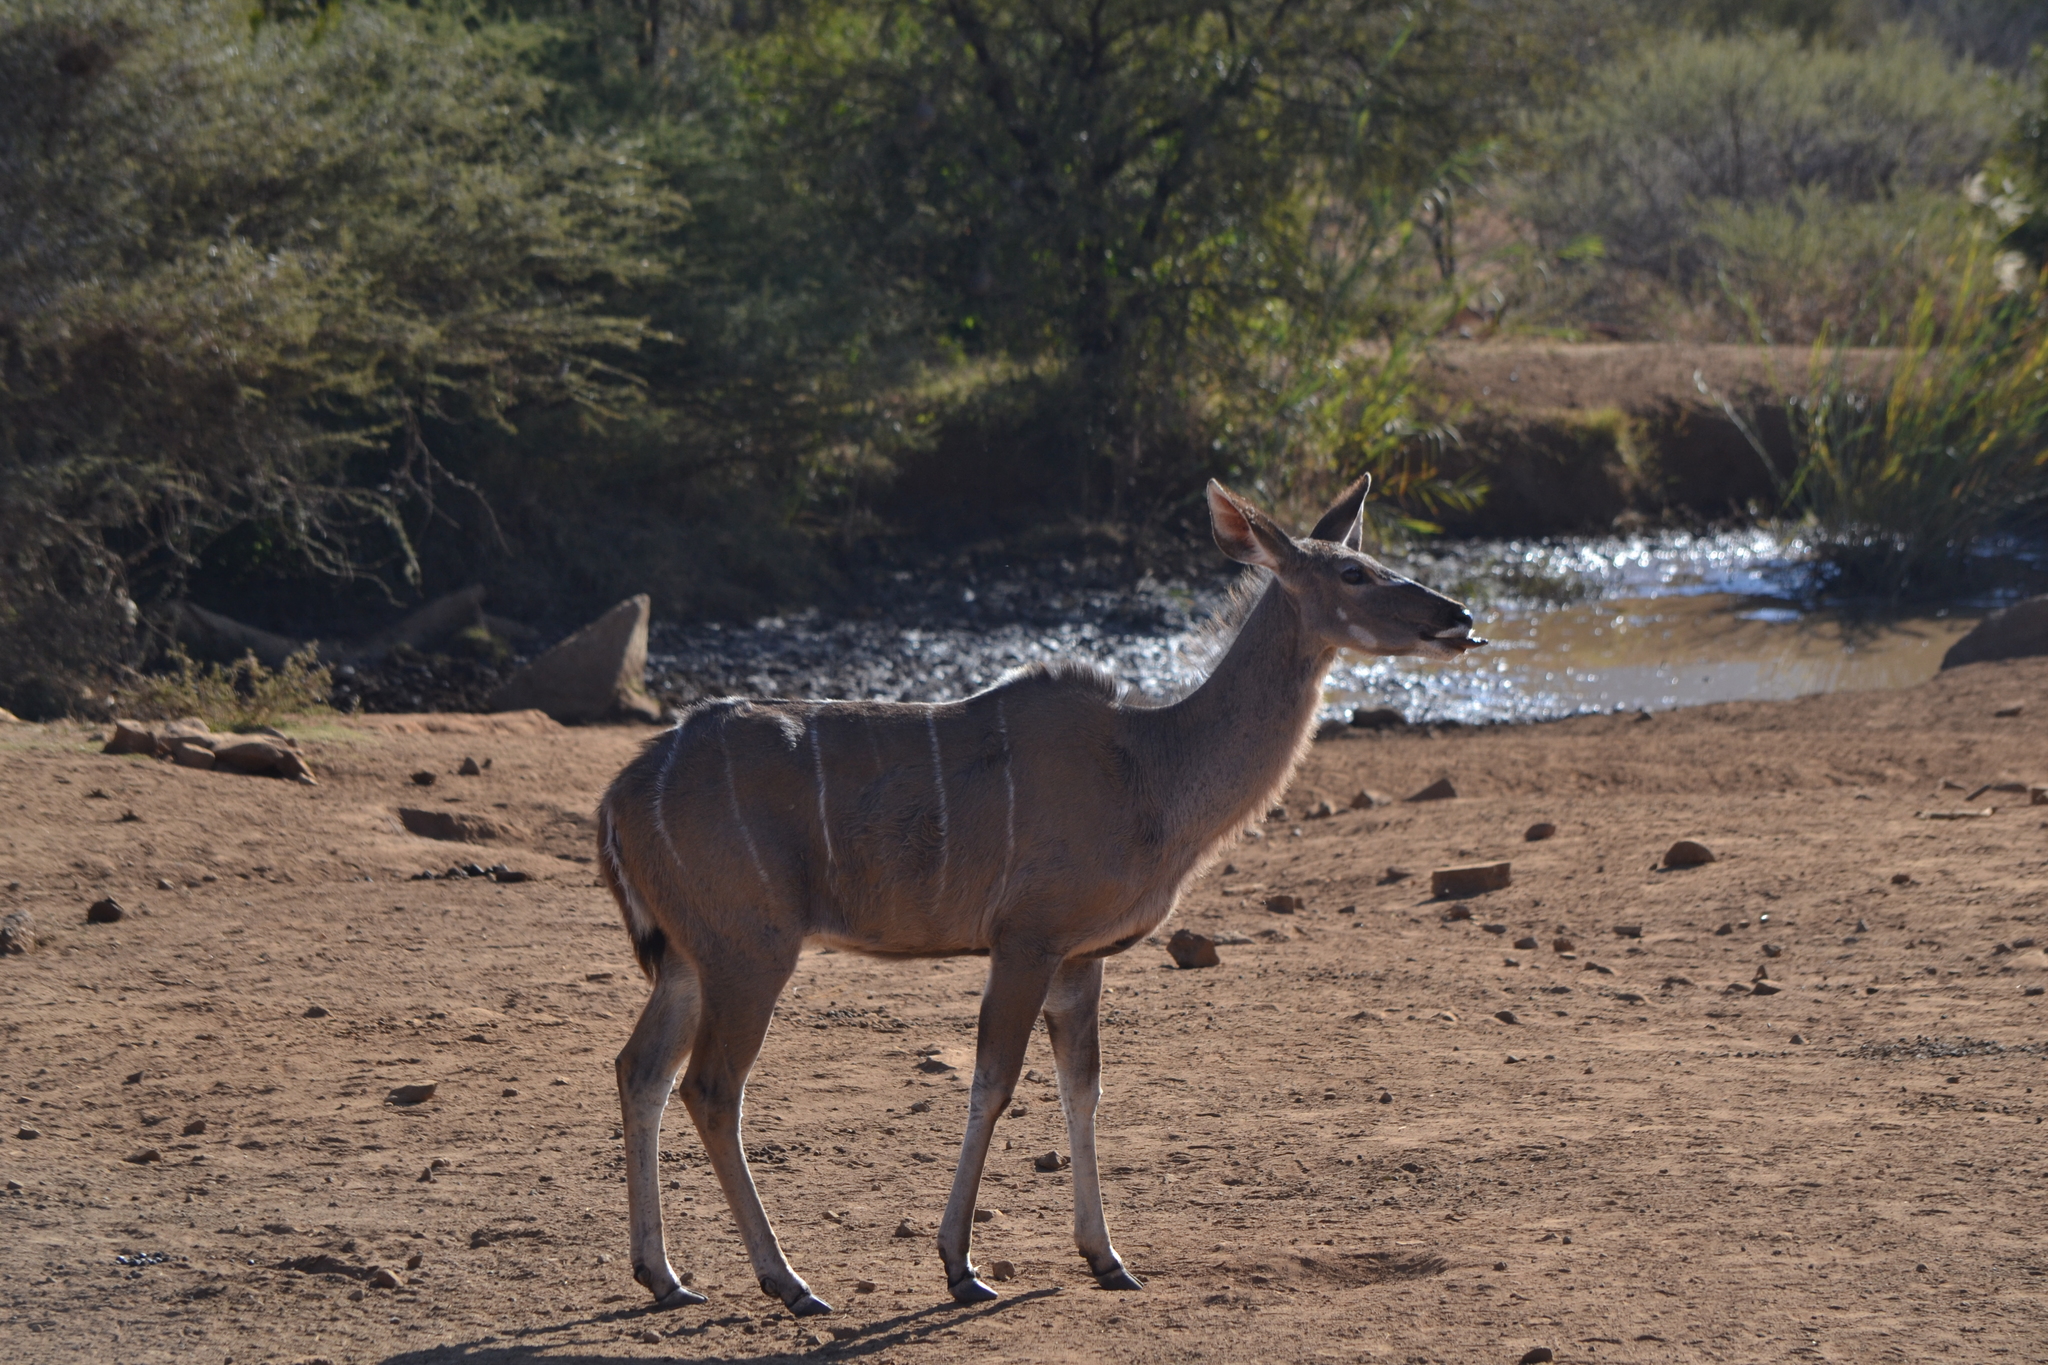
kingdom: Animalia
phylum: Chordata
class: Mammalia
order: Artiodactyla
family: Bovidae
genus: Tragelaphus
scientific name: Tragelaphus strepsiceros
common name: Greater kudu
